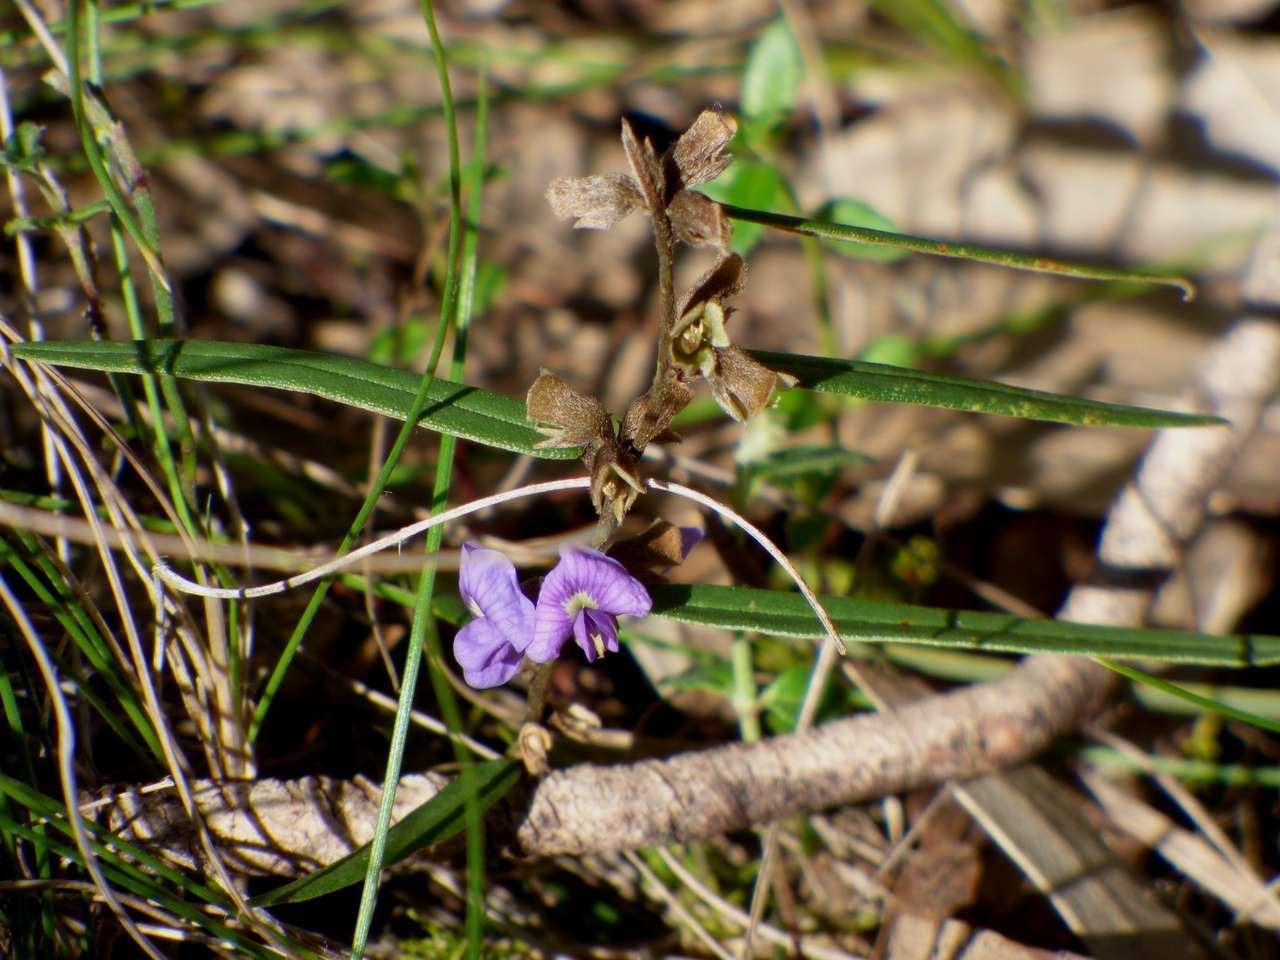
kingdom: Plantae
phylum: Tracheophyta
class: Magnoliopsida
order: Fabales
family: Fabaceae
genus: Hovea
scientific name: Hovea heterophylla
